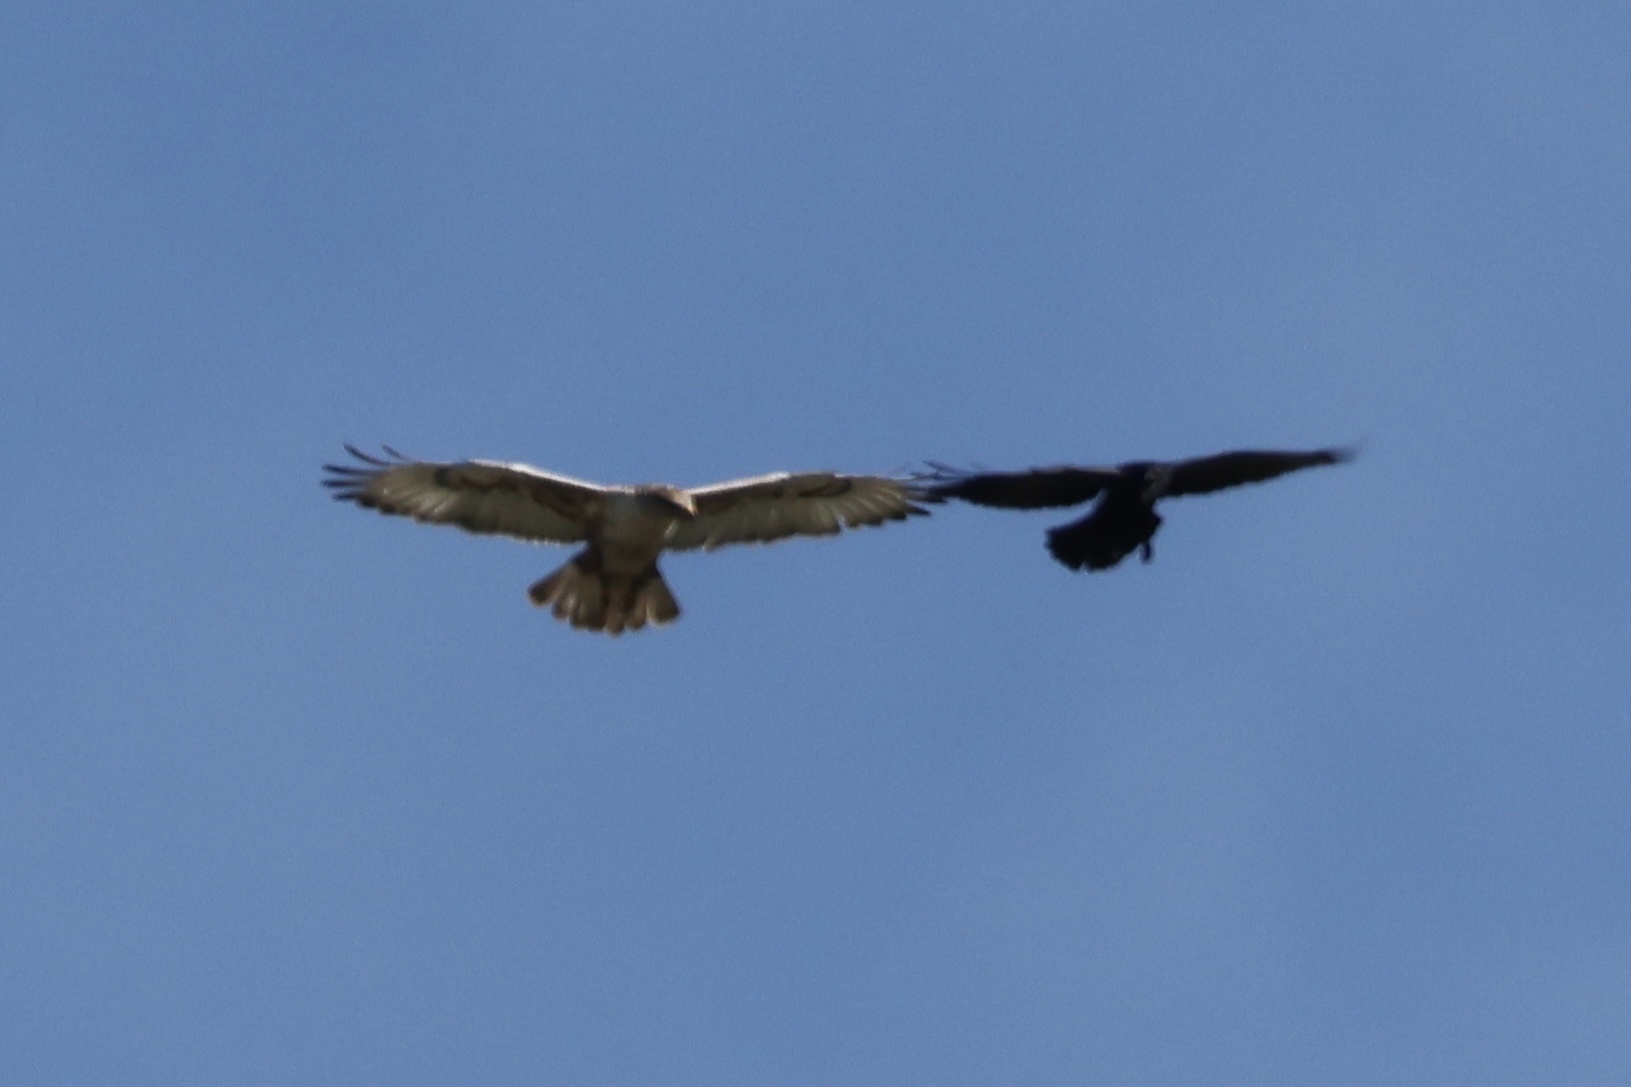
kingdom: Animalia
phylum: Chordata
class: Aves
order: Accipitriformes
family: Accipitridae
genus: Buteo
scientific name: Buteo regalis
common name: Ferruginous hawk
